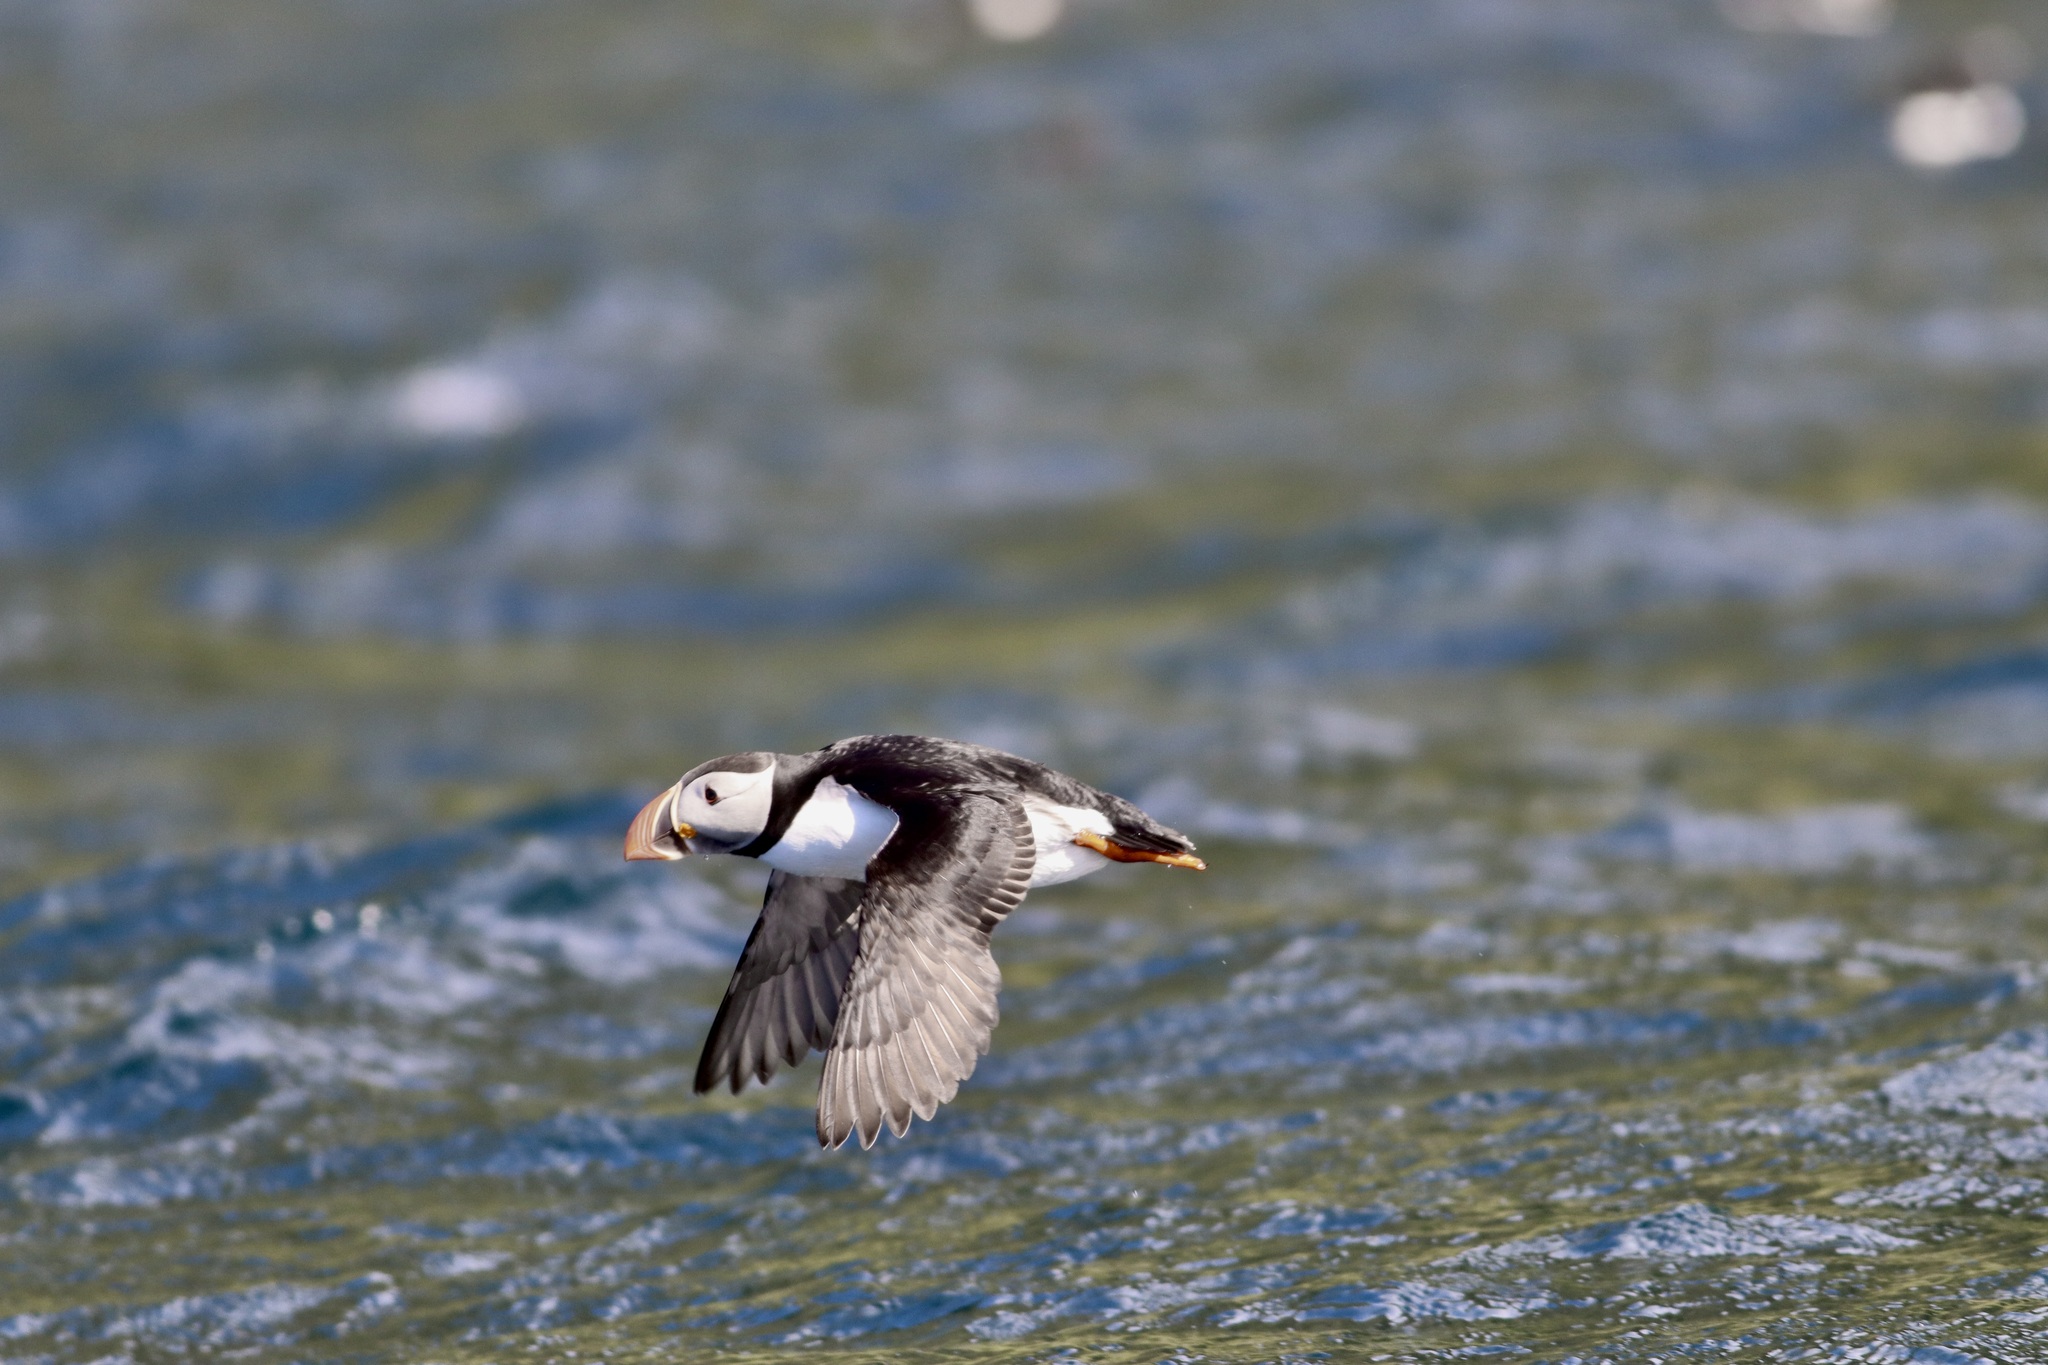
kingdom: Animalia
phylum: Chordata
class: Aves
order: Charadriiformes
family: Alcidae
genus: Fratercula
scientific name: Fratercula arctica
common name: Atlantic puffin
